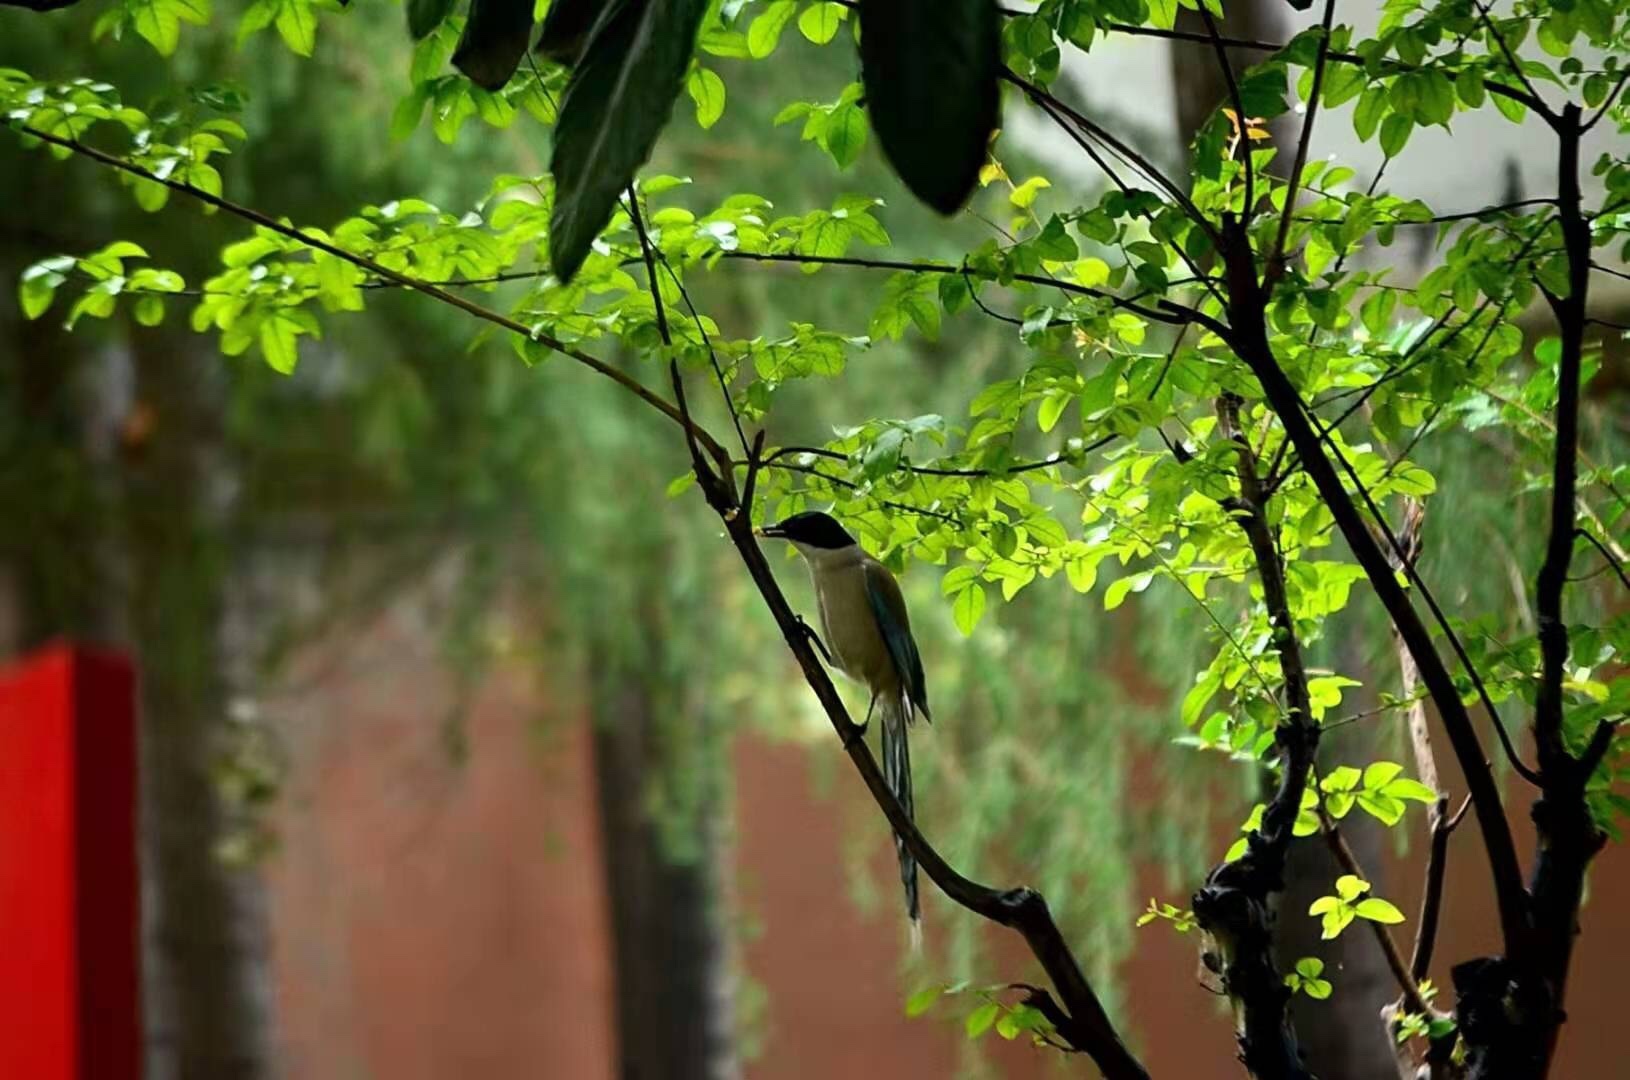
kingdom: Animalia
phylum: Chordata
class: Aves
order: Passeriformes
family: Corvidae
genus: Cyanopica
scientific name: Cyanopica cyanus
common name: Azure-winged magpie
